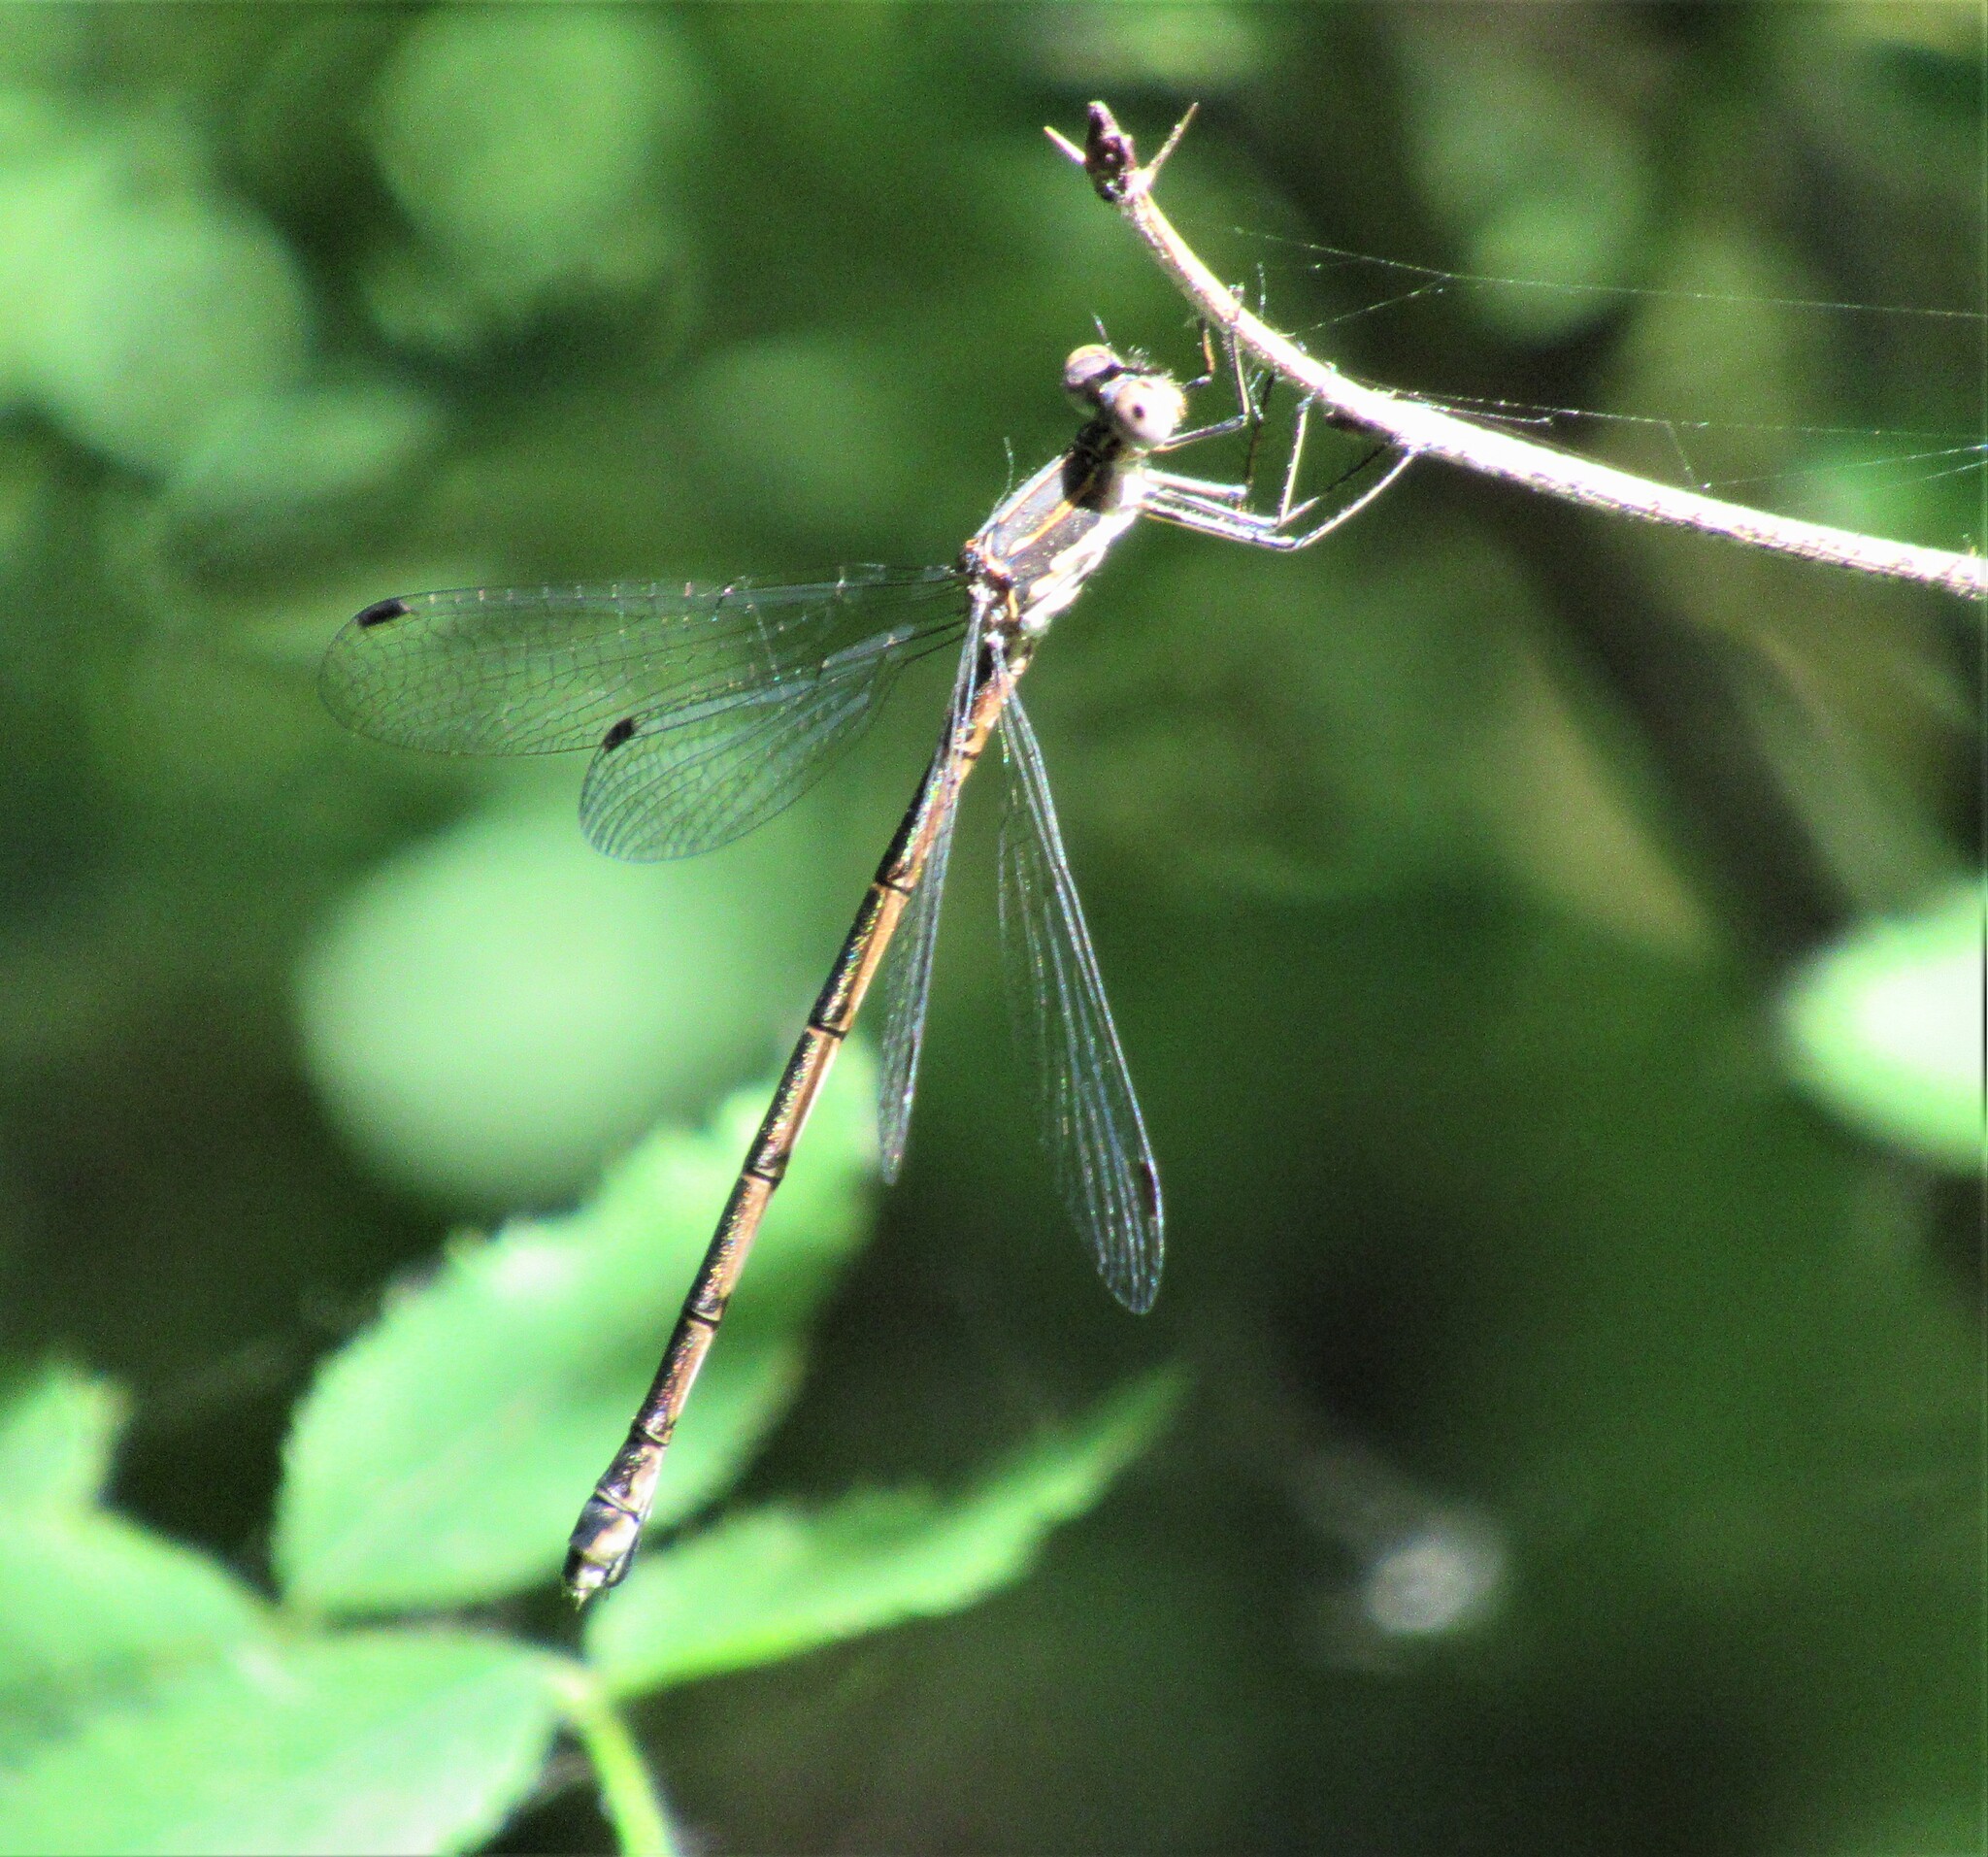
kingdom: Animalia
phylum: Arthropoda
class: Insecta
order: Odonata
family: Lestidae
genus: Lestes
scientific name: Lestes congener
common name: Spotted spreadwing
